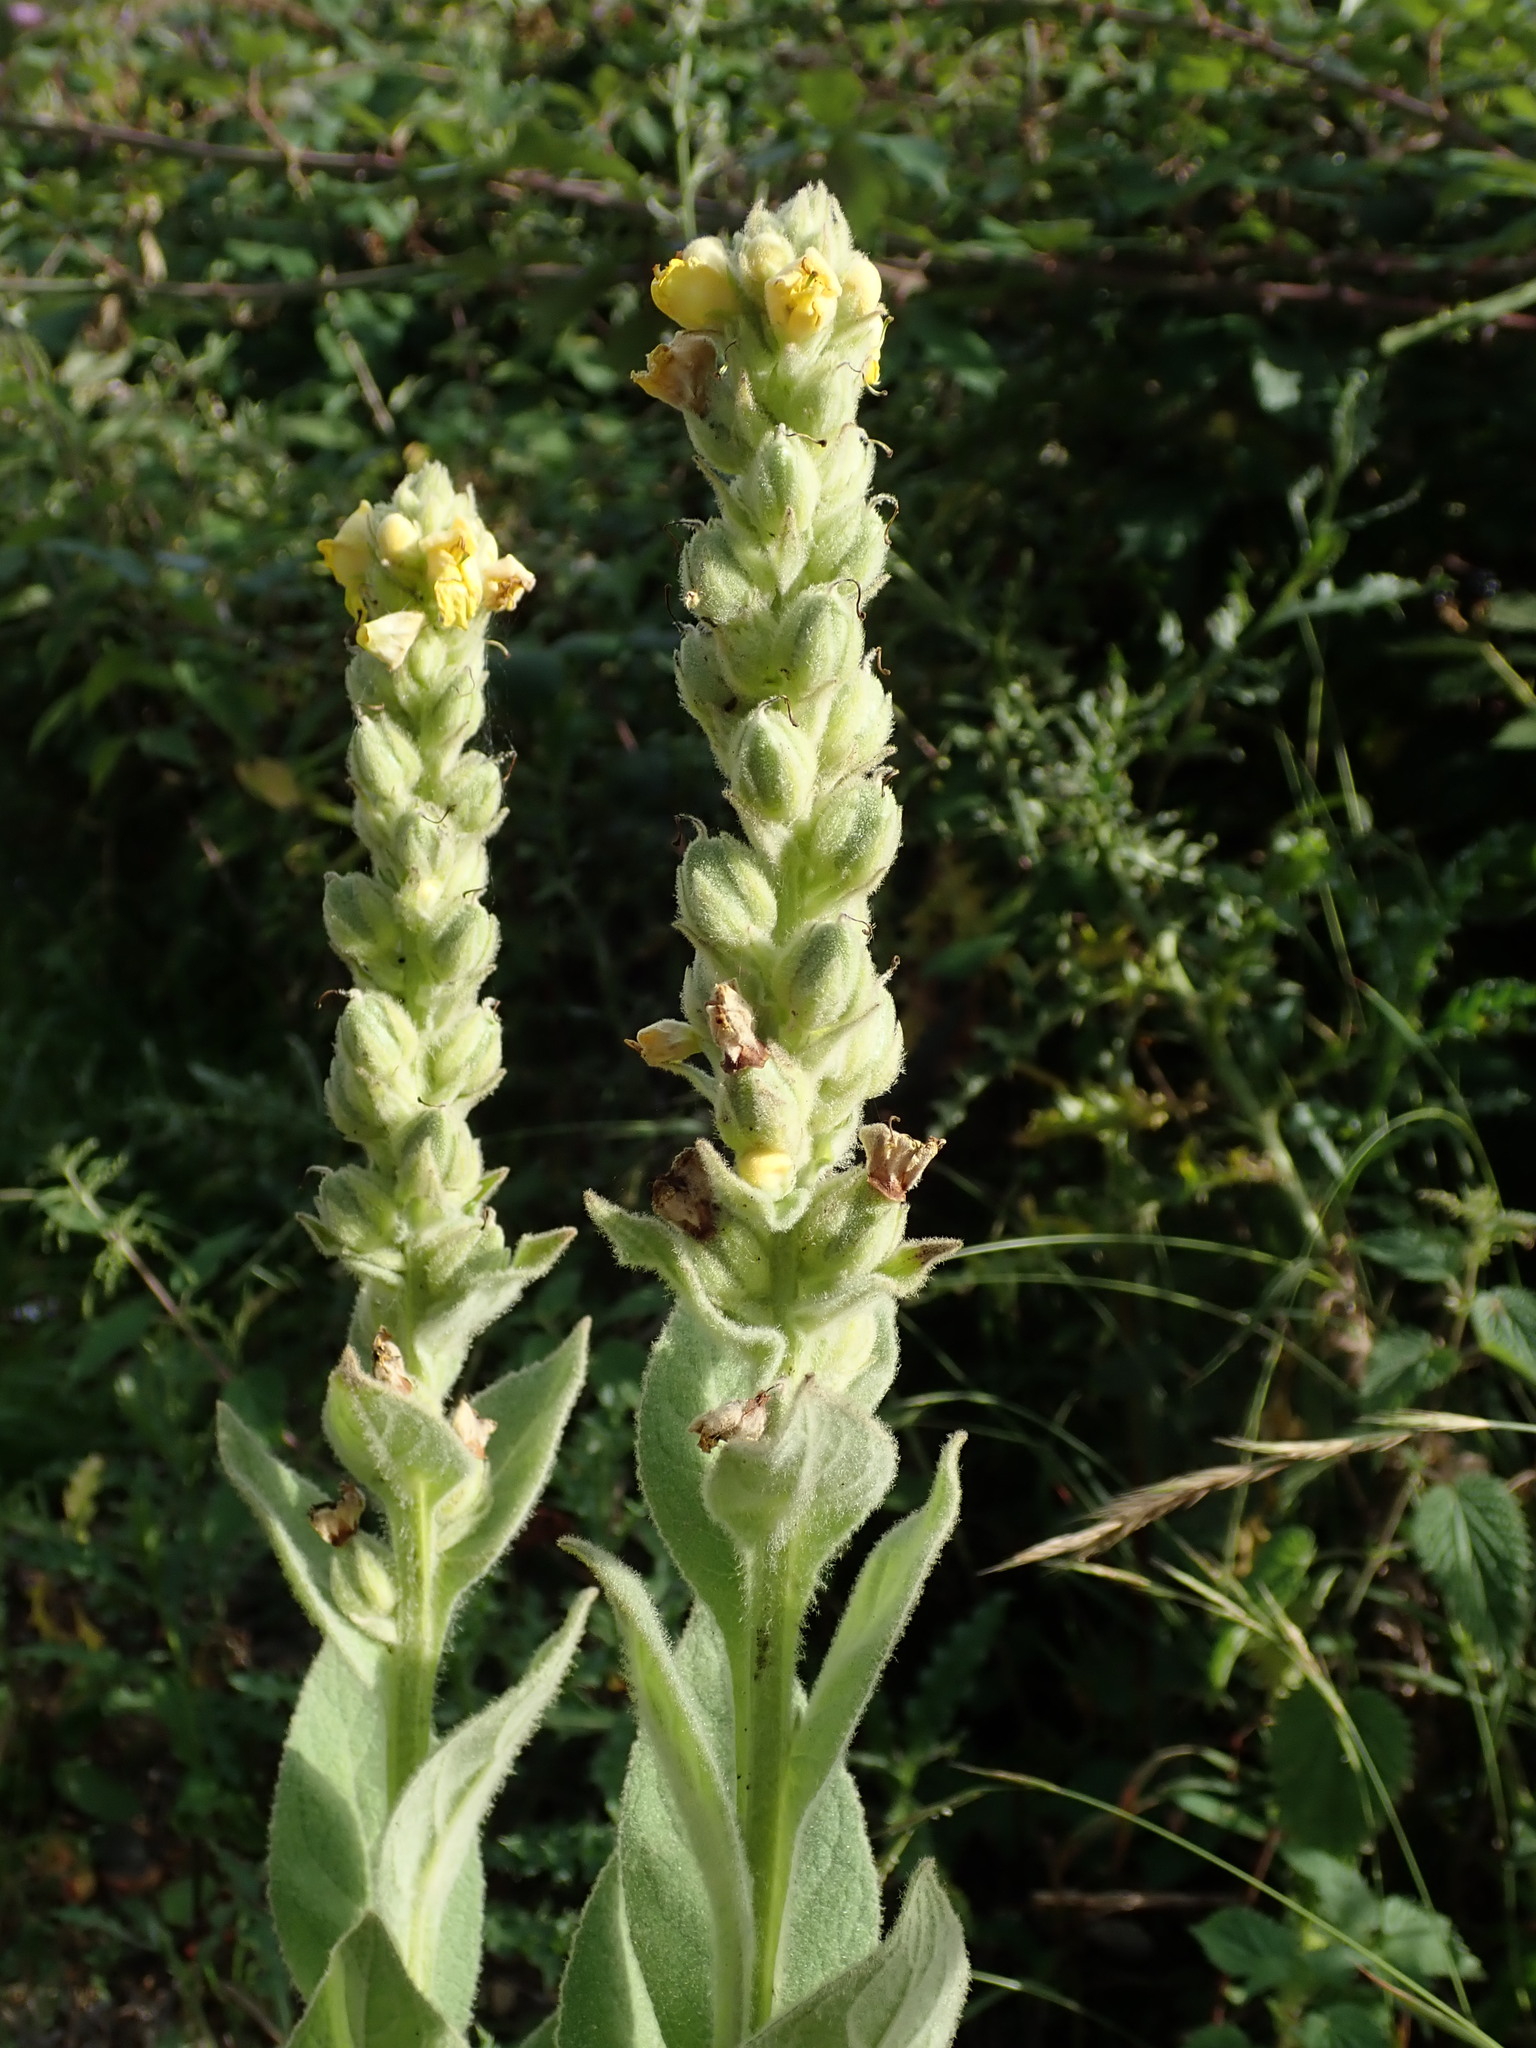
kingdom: Plantae
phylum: Tracheophyta
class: Magnoliopsida
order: Lamiales
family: Scrophulariaceae
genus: Verbascum
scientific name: Verbascum thapsus
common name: Common mullein
